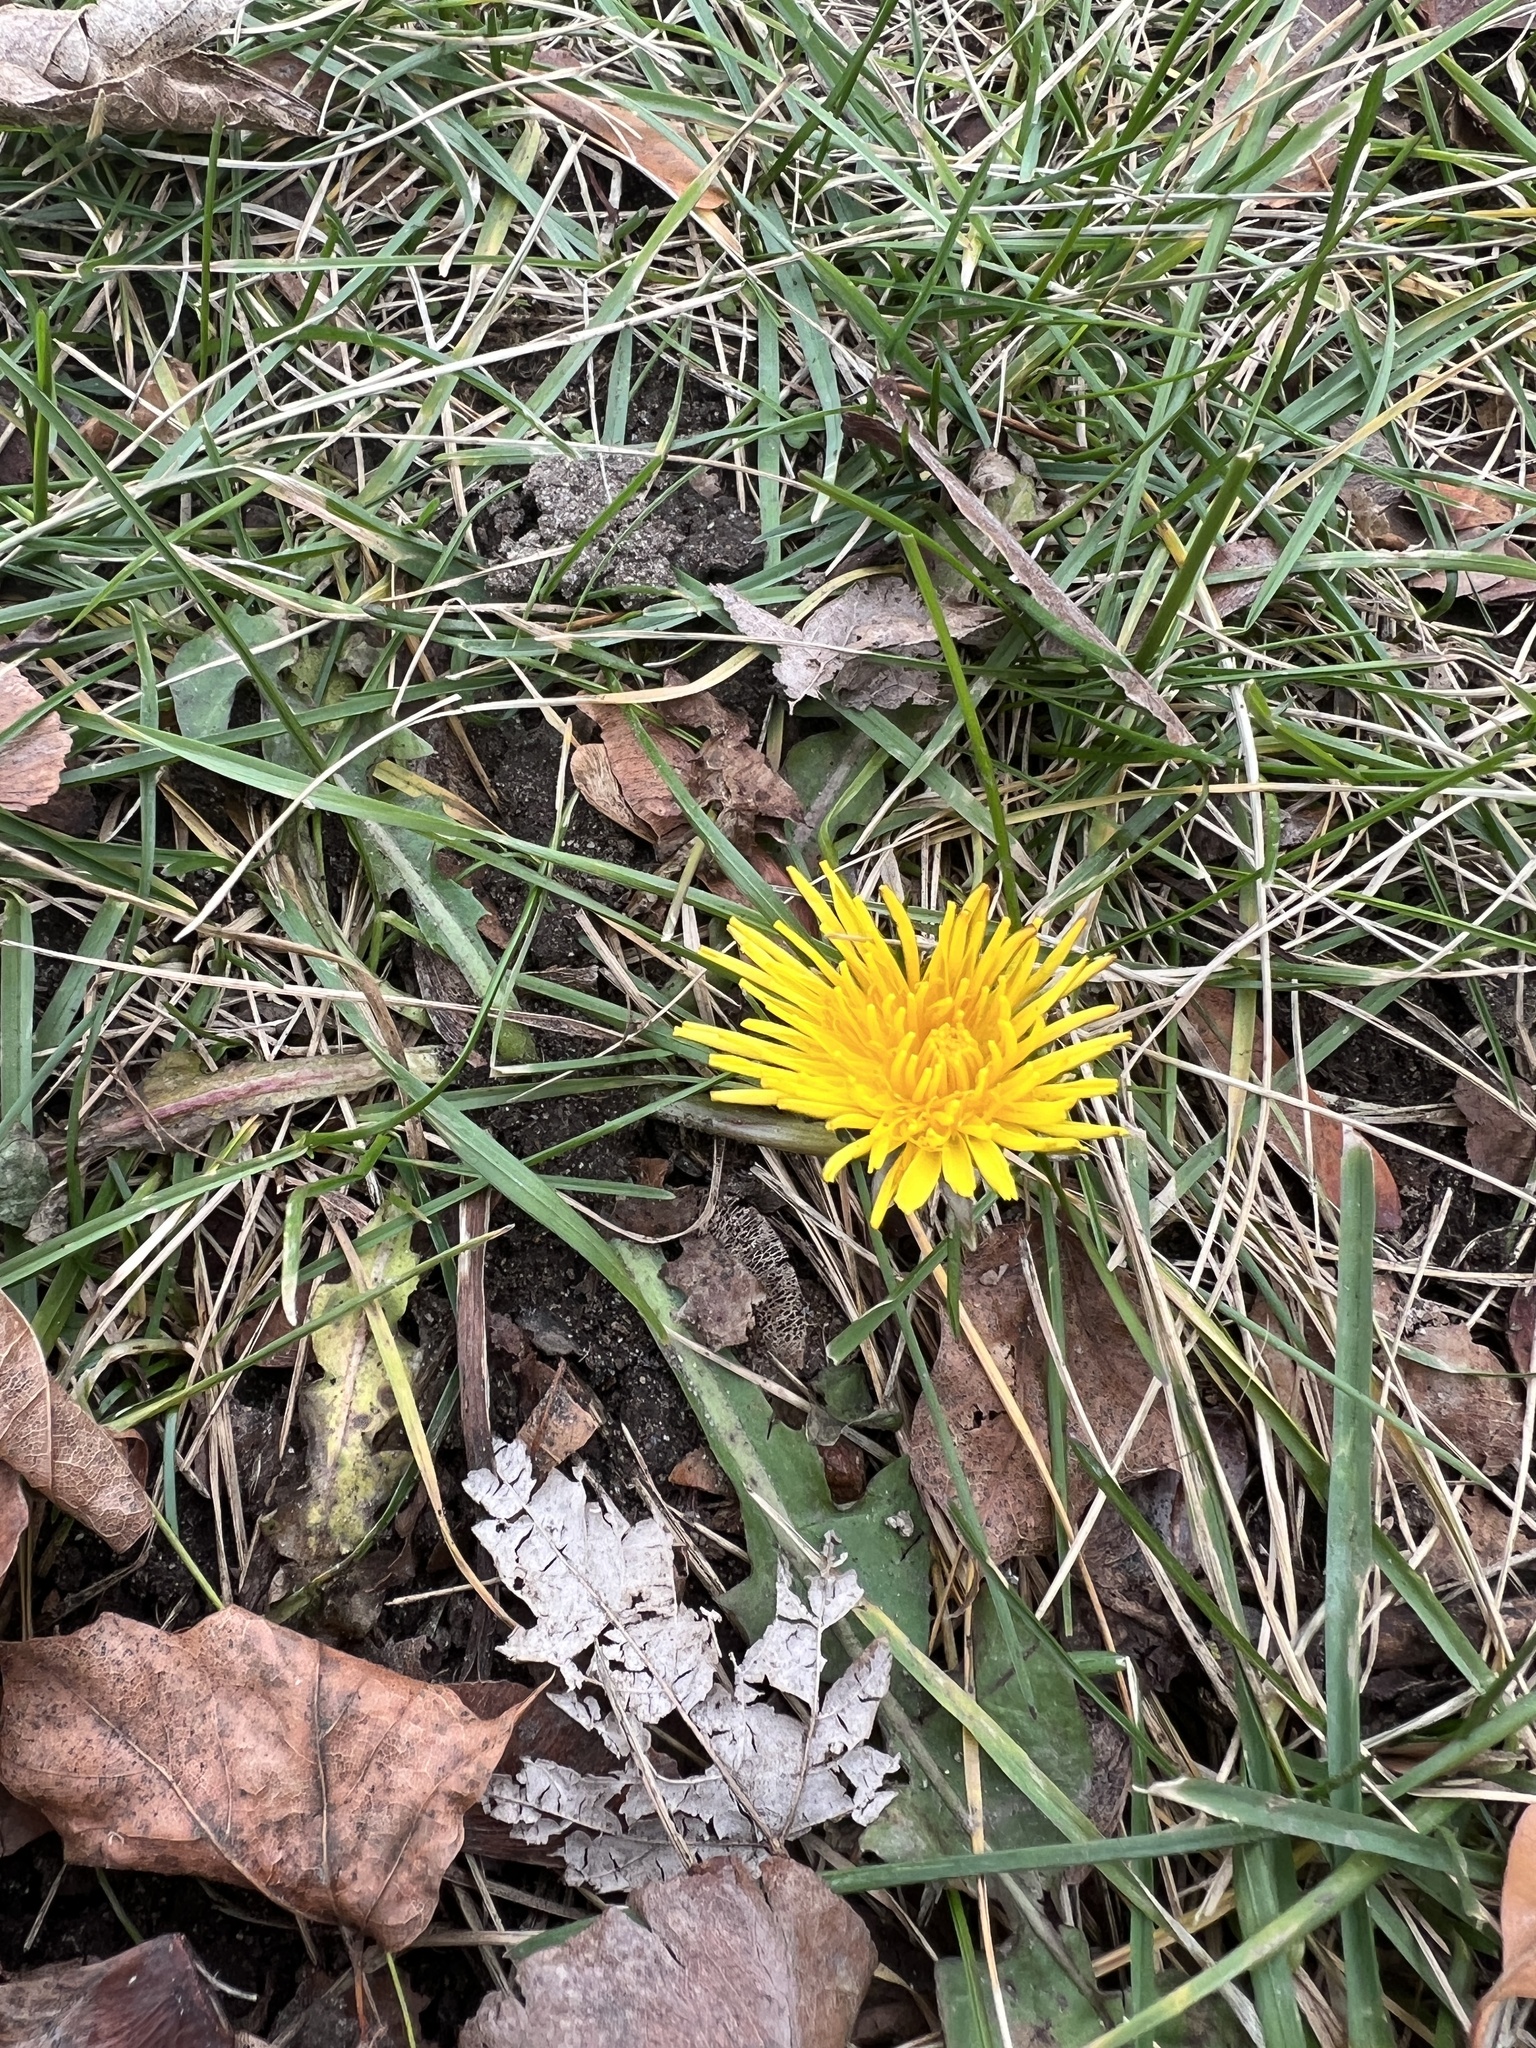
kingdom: Plantae
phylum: Tracheophyta
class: Magnoliopsida
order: Asterales
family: Asteraceae
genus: Taraxacum
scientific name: Taraxacum officinale
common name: Common dandelion
